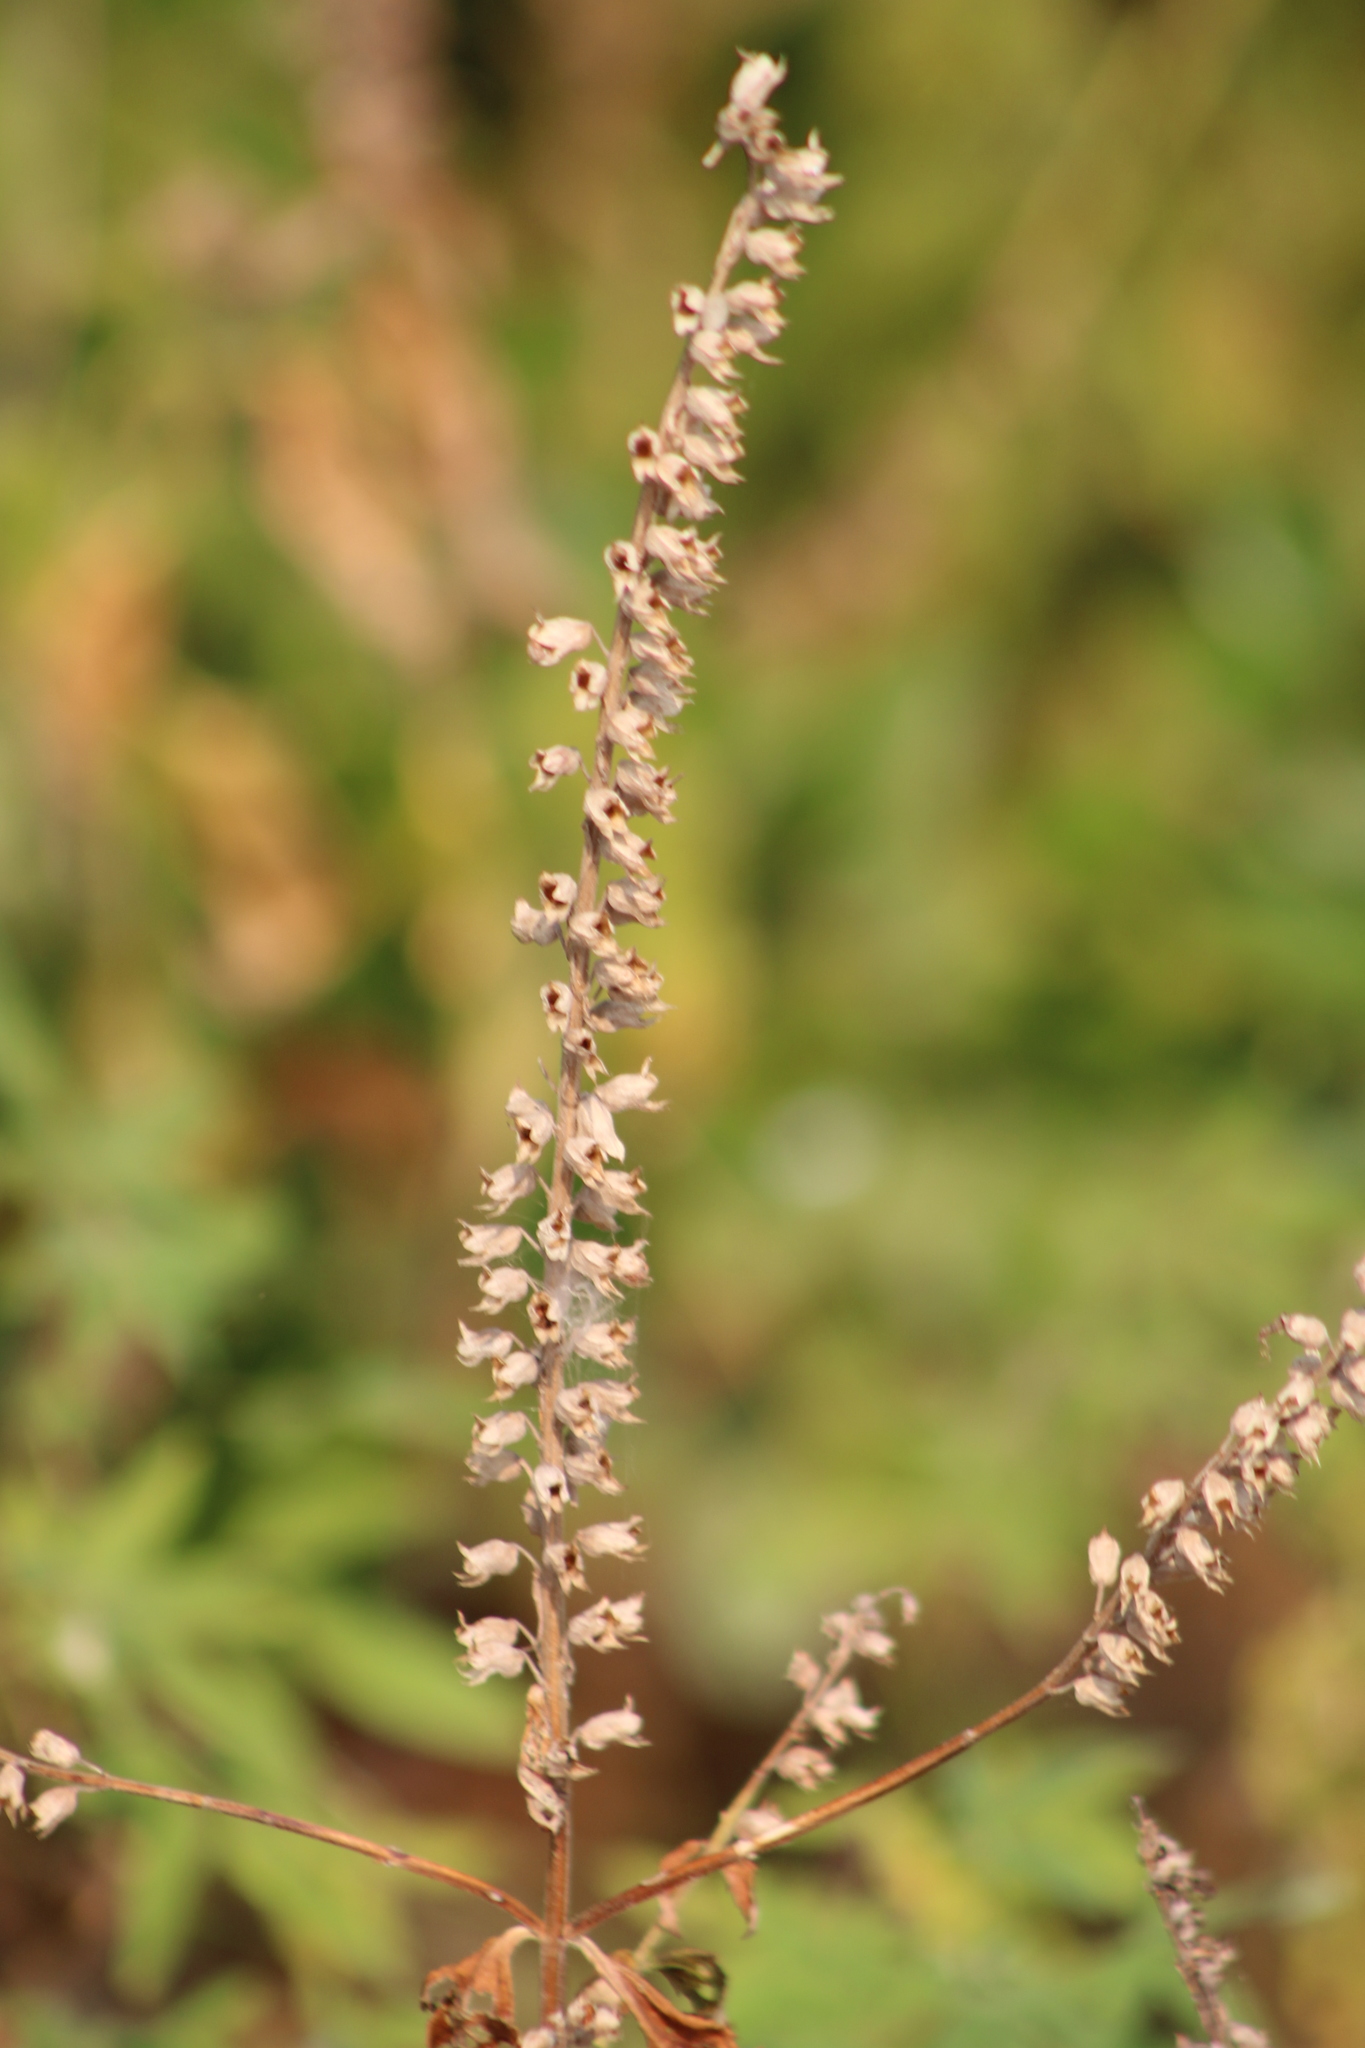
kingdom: Plantae
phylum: Tracheophyta
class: Magnoliopsida
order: Lamiales
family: Lamiaceae
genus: Teucrium
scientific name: Teucrium canadense
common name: American germander
